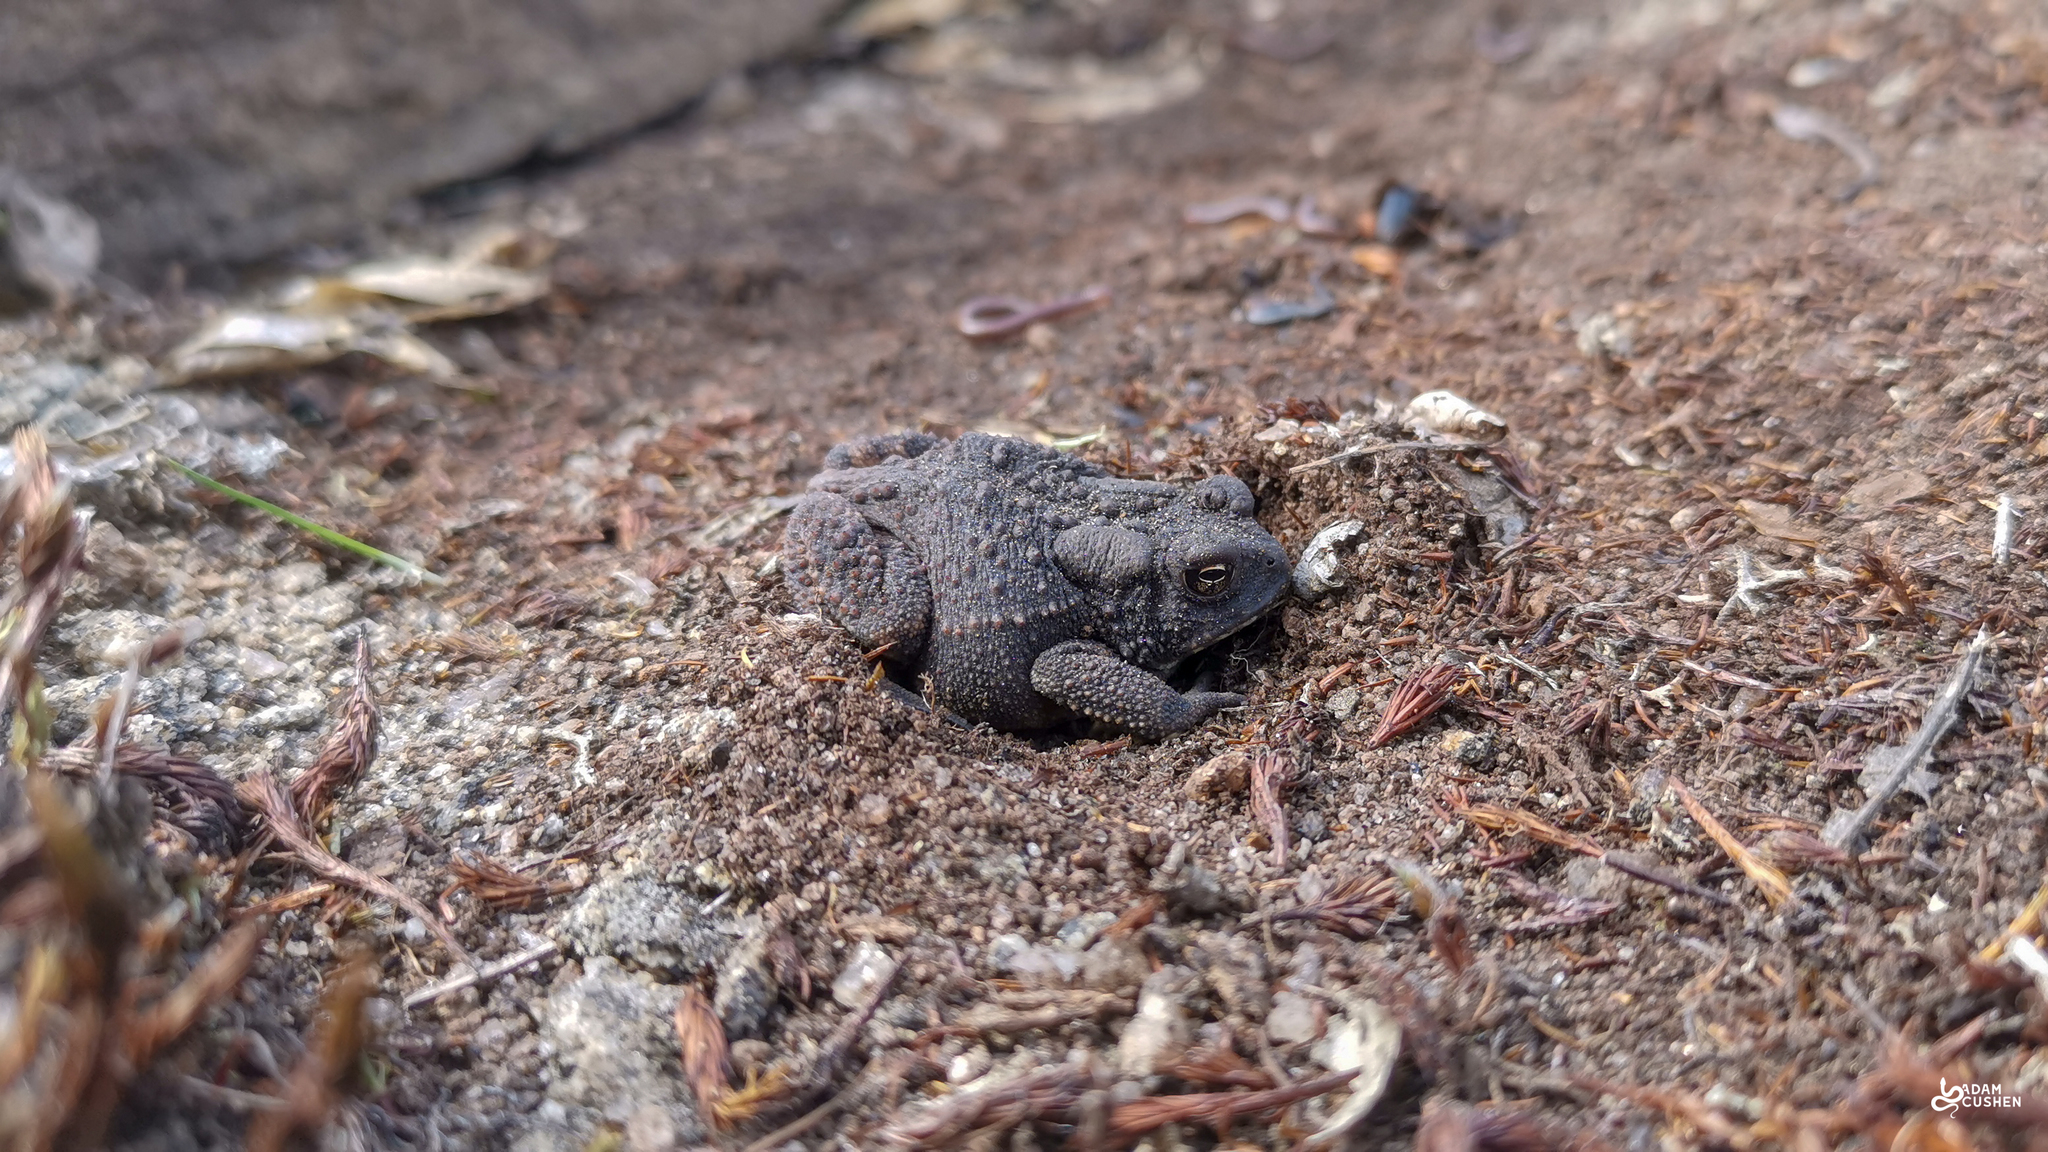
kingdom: Animalia
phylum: Chordata
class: Amphibia
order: Anura
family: Bufonidae
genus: Anaxyrus
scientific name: Anaxyrus americanus
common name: American toad
